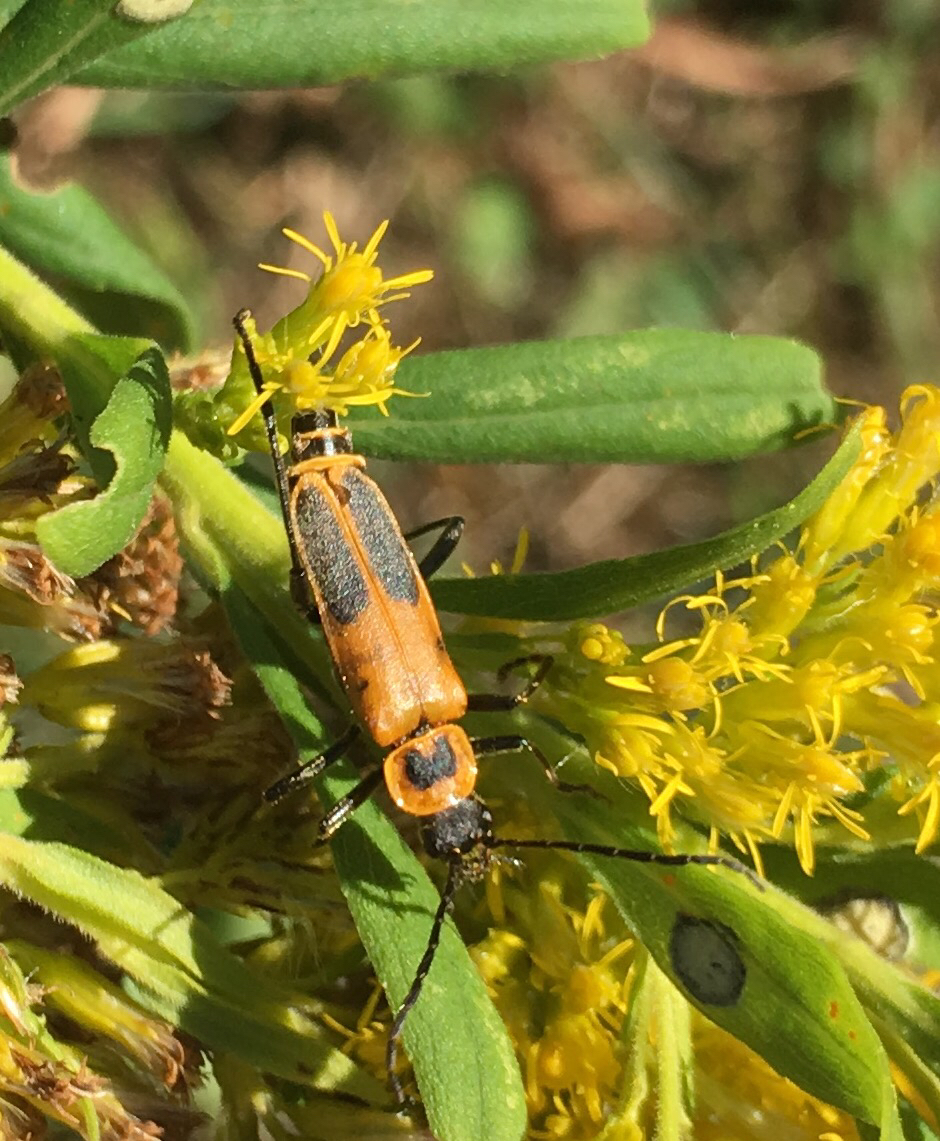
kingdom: Animalia
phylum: Arthropoda
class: Insecta
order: Coleoptera
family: Cantharidae
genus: Chauliognathus
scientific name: Chauliognathus pensylvanicus
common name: Goldenrod soldier beetle
